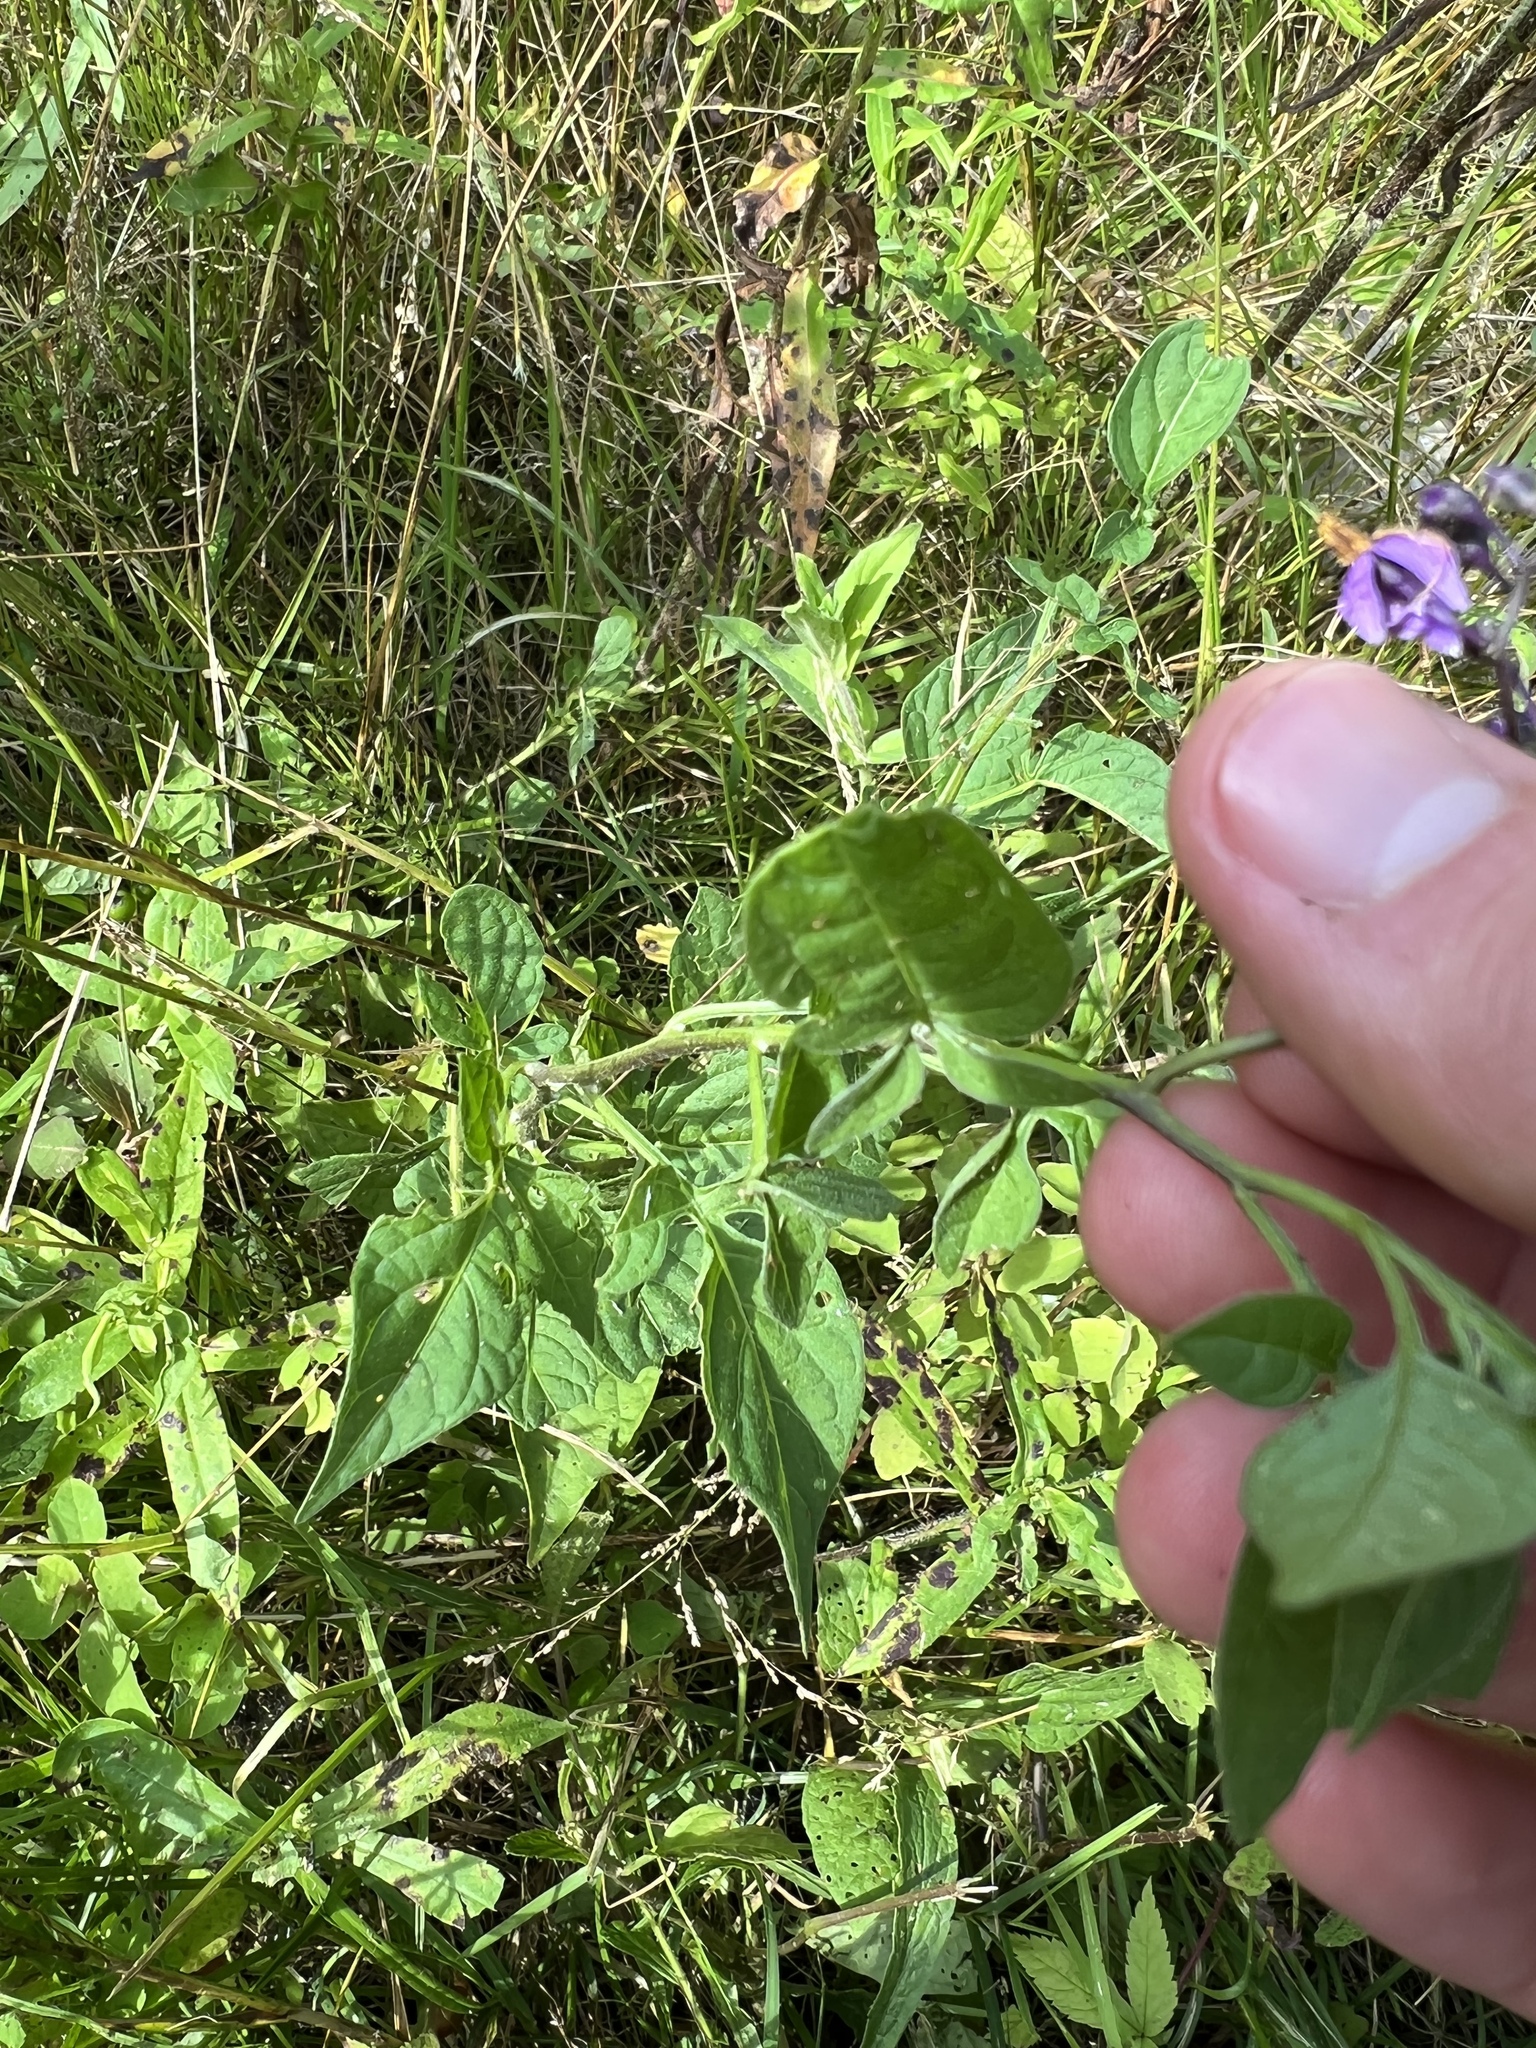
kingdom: Plantae
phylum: Tracheophyta
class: Magnoliopsida
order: Solanales
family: Solanaceae
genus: Solanum
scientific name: Solanum dulcamara
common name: Climbing nightshade
